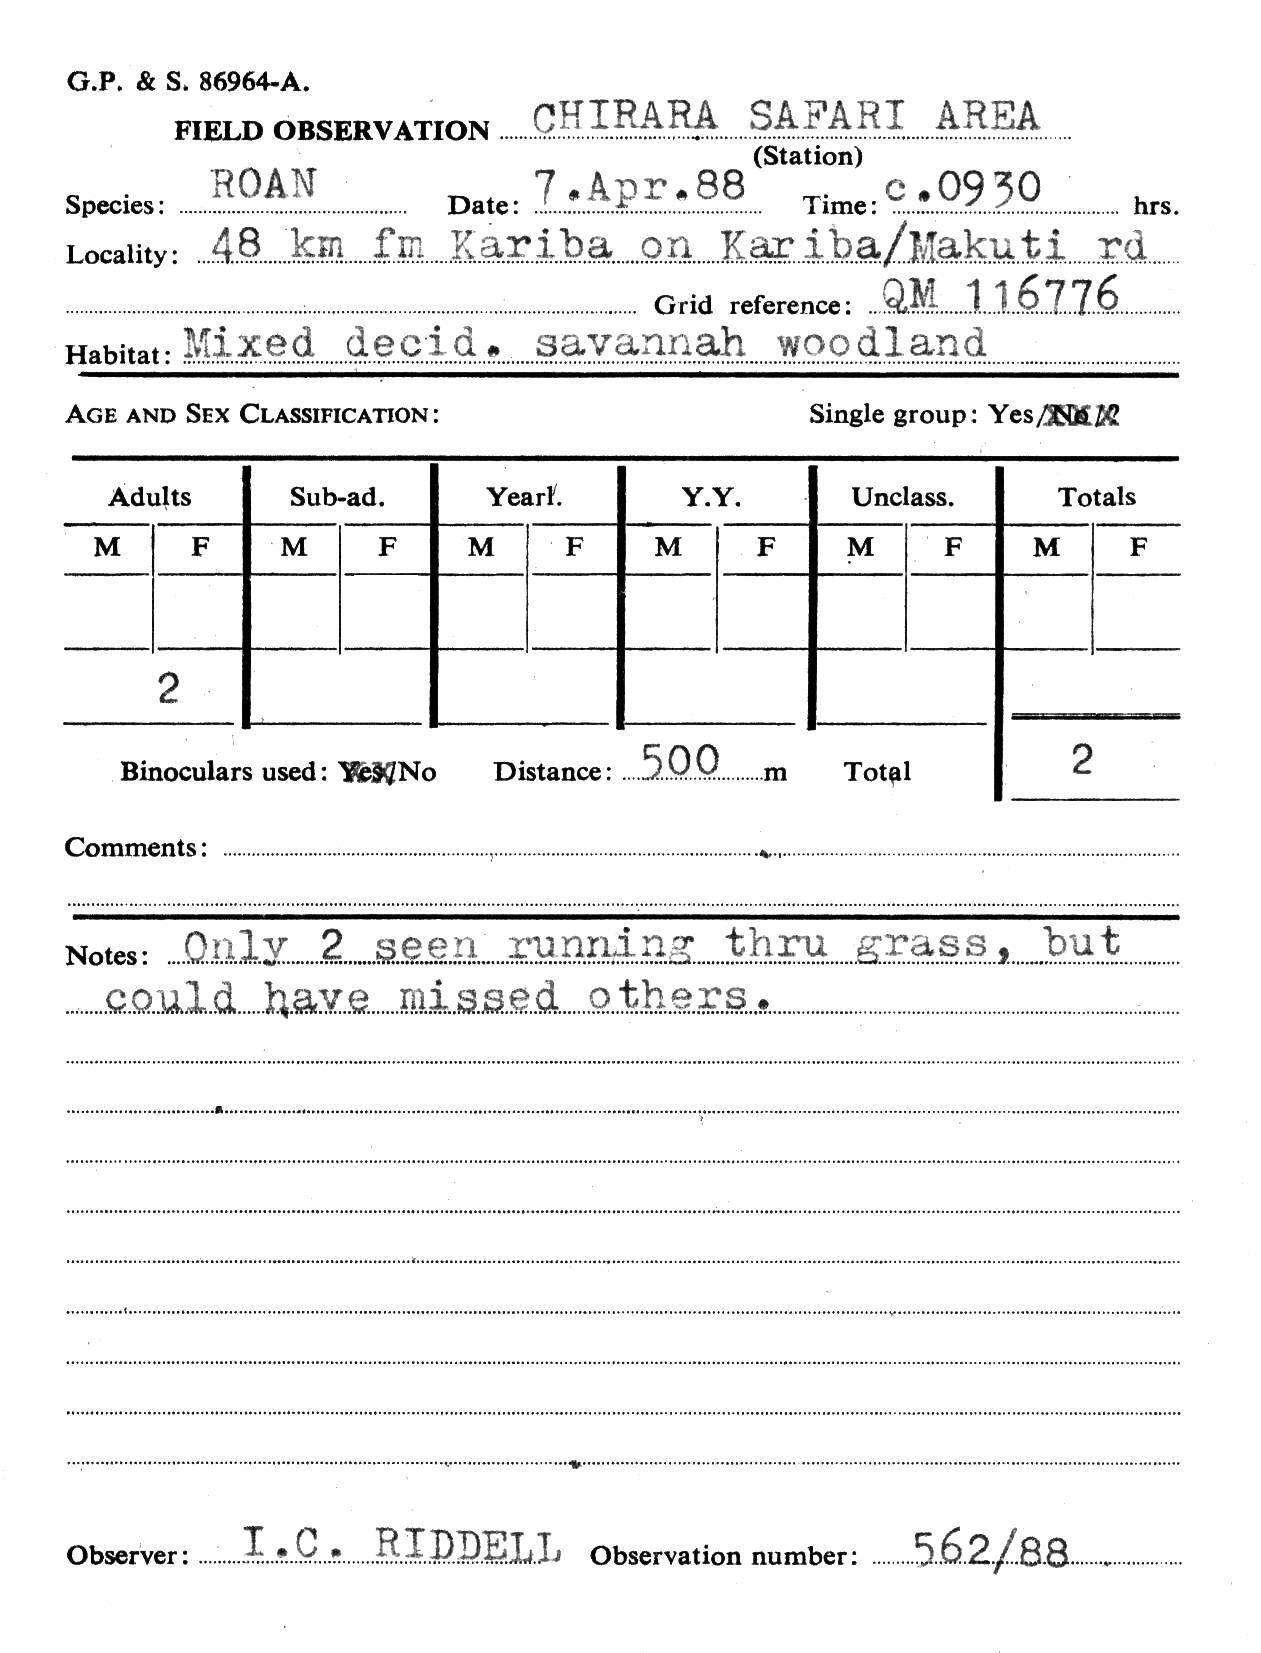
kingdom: Animalia
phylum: Chordata
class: Mammalia
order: Artiodactyla
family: Bovidae
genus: Hippotragus
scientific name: Hippotragus equinus
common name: Roan antelope
